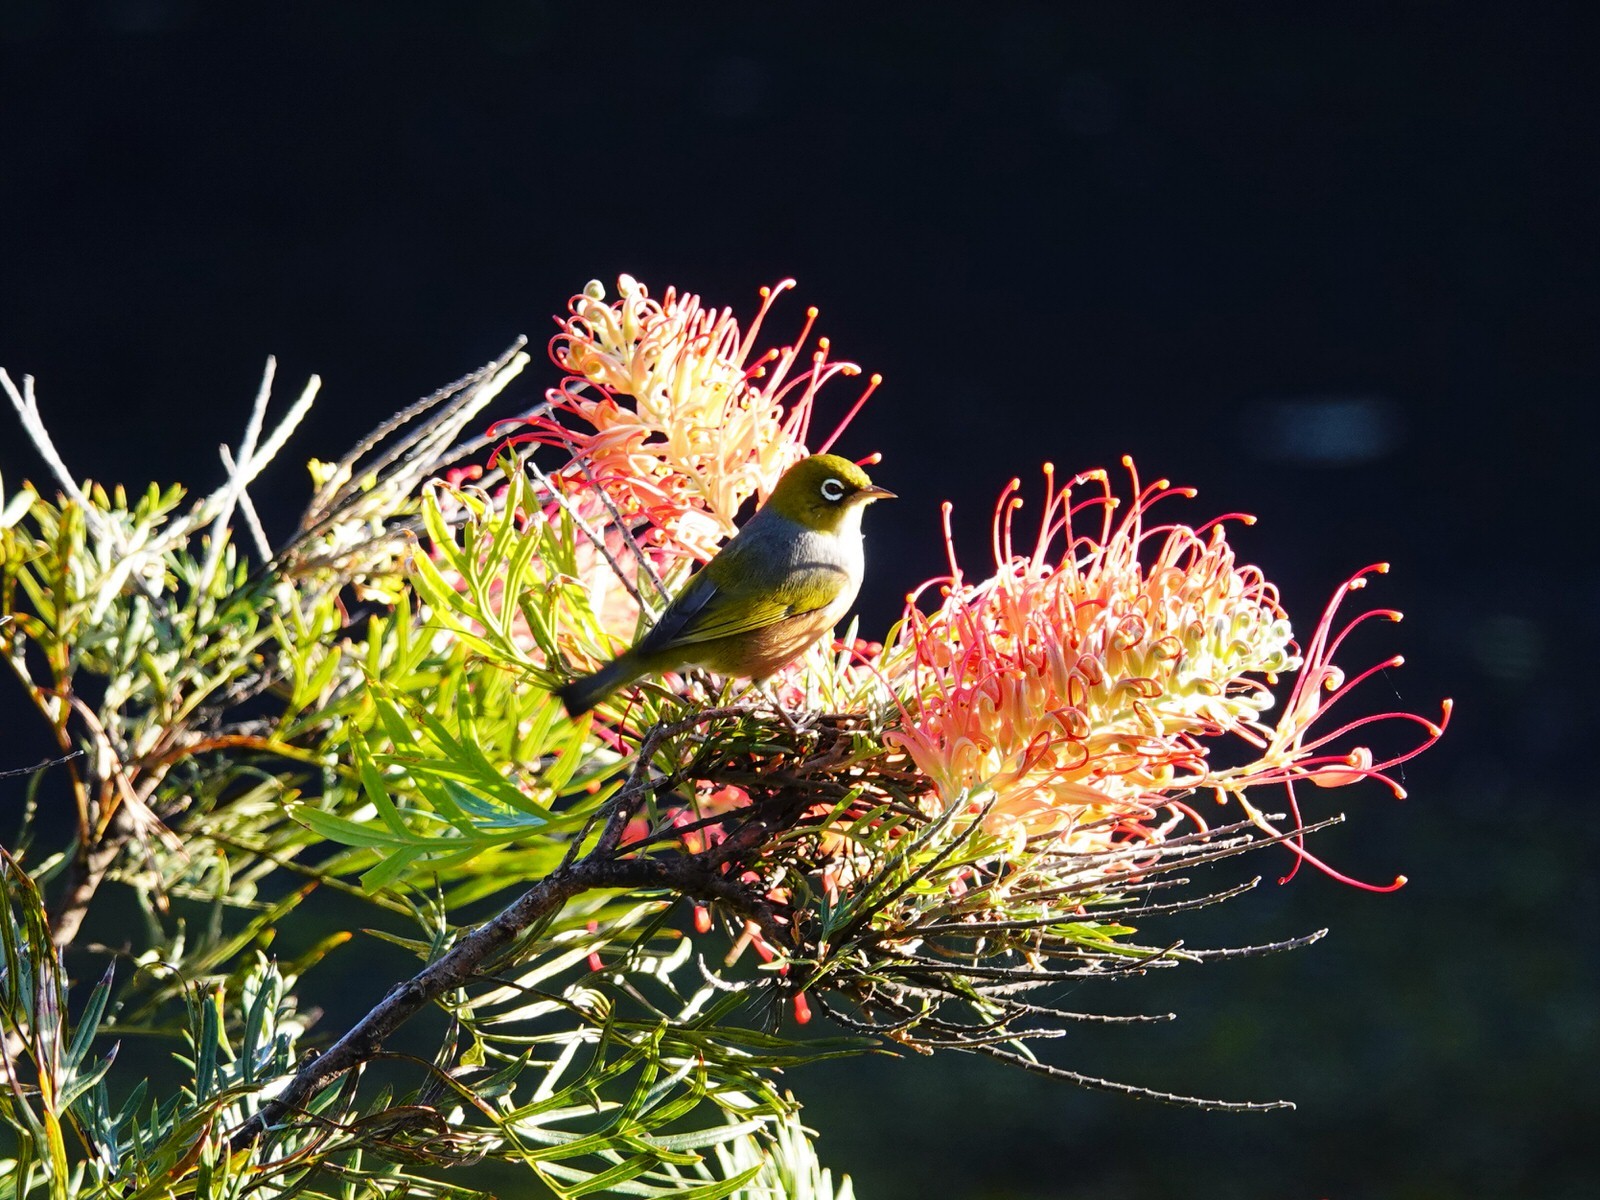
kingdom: Animalia
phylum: Chordata
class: Aves
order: Passeriformes
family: Zosteropidae
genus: Zosterops
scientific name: Zosterops lateralis
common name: Silvereye
